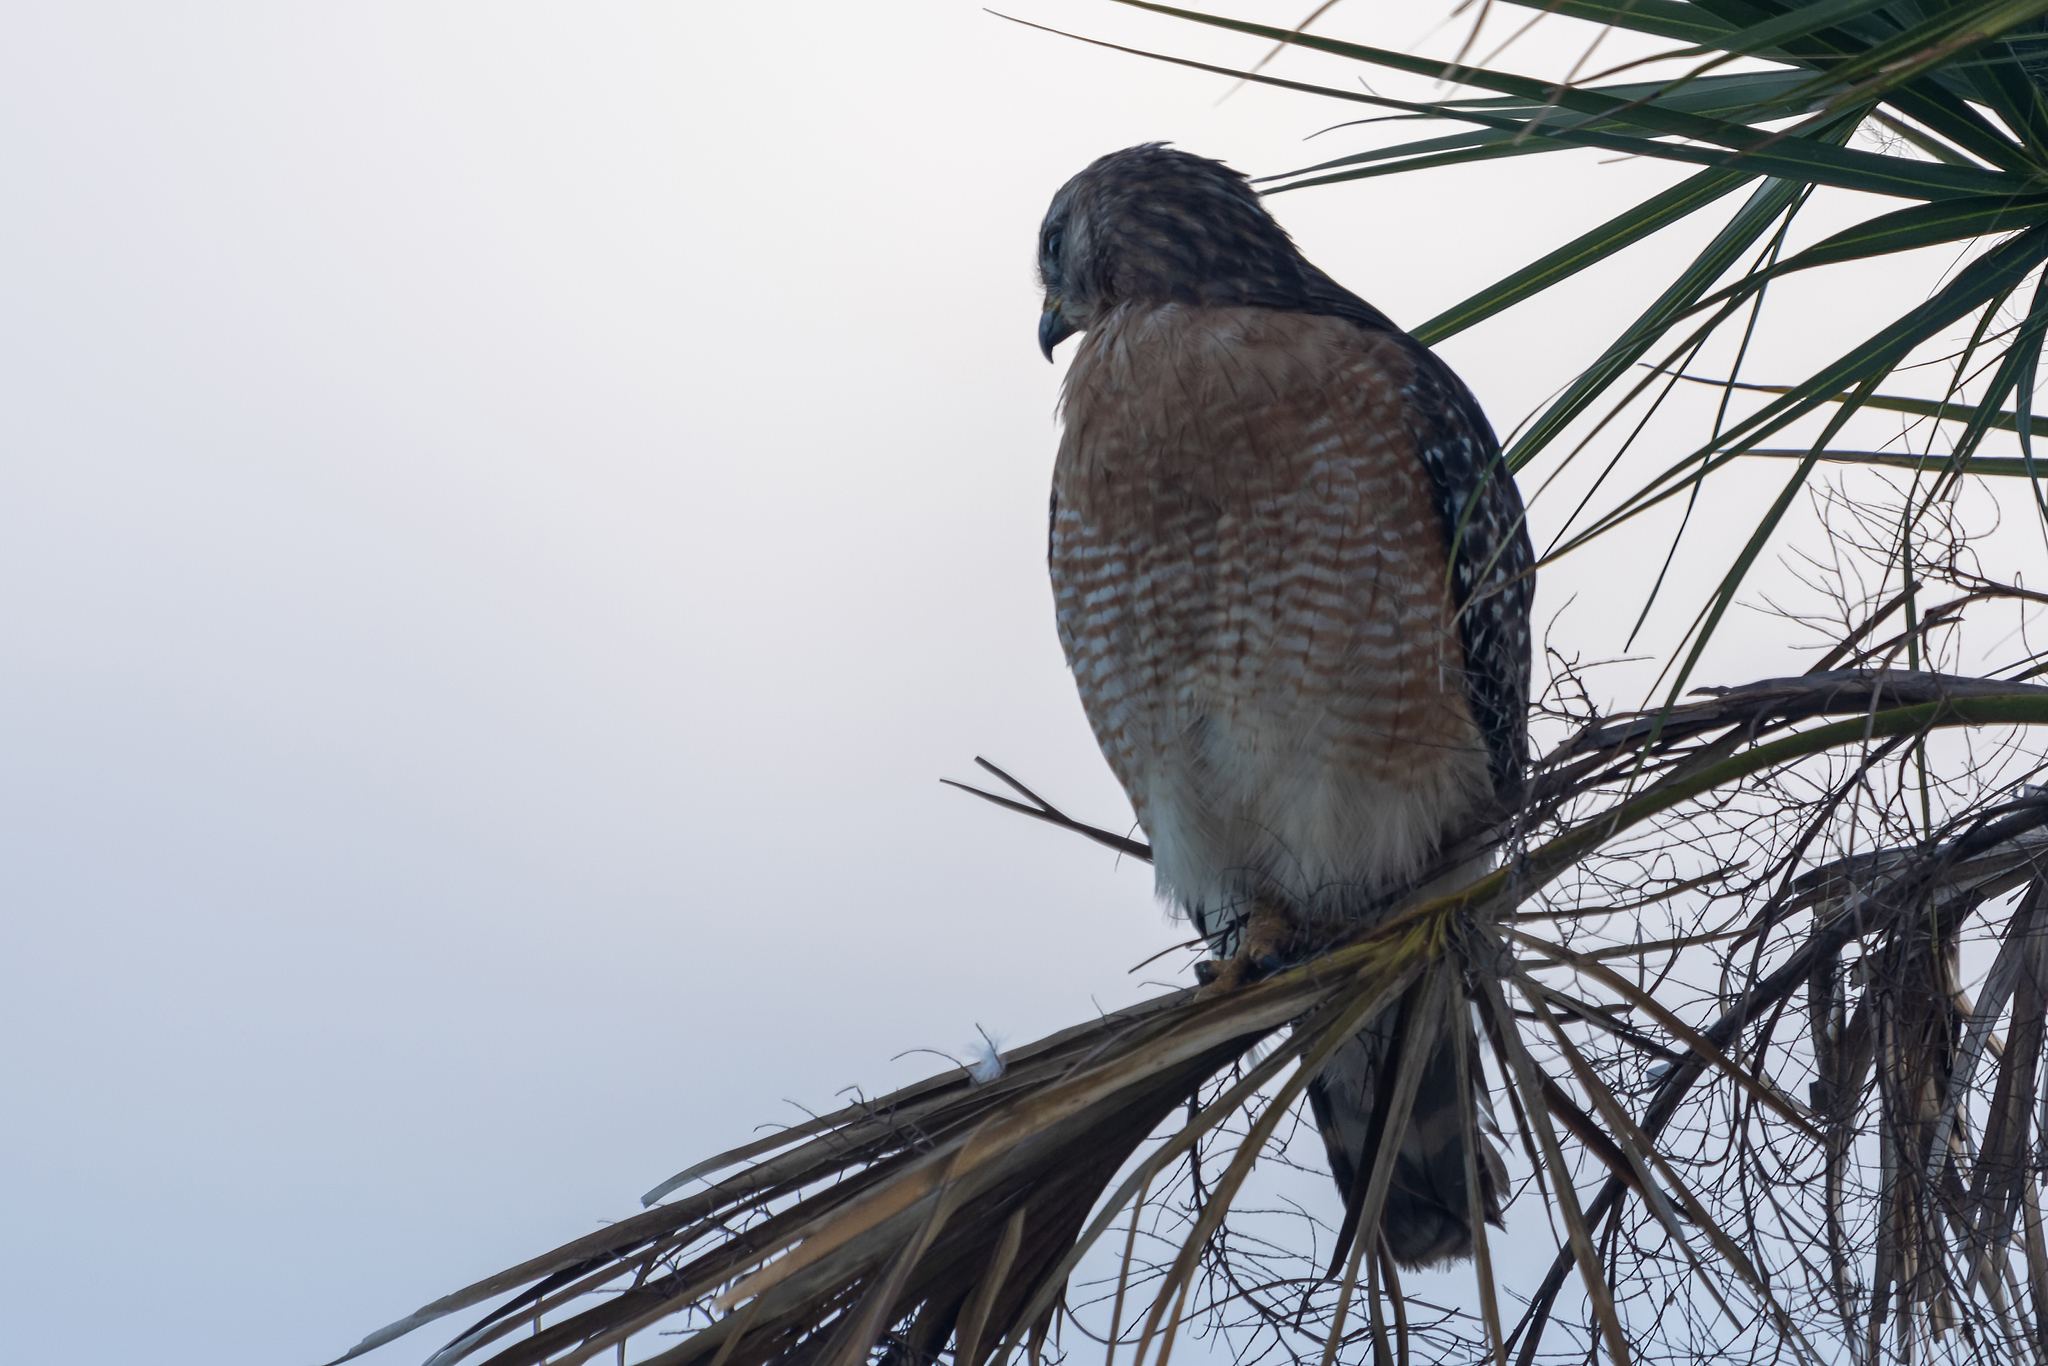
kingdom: Animalia
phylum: Chordata
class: Aves
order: Accipitriformes
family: Accipitridae
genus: Buteo
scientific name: Buteo lineatus
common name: Red-shouldered hawk
